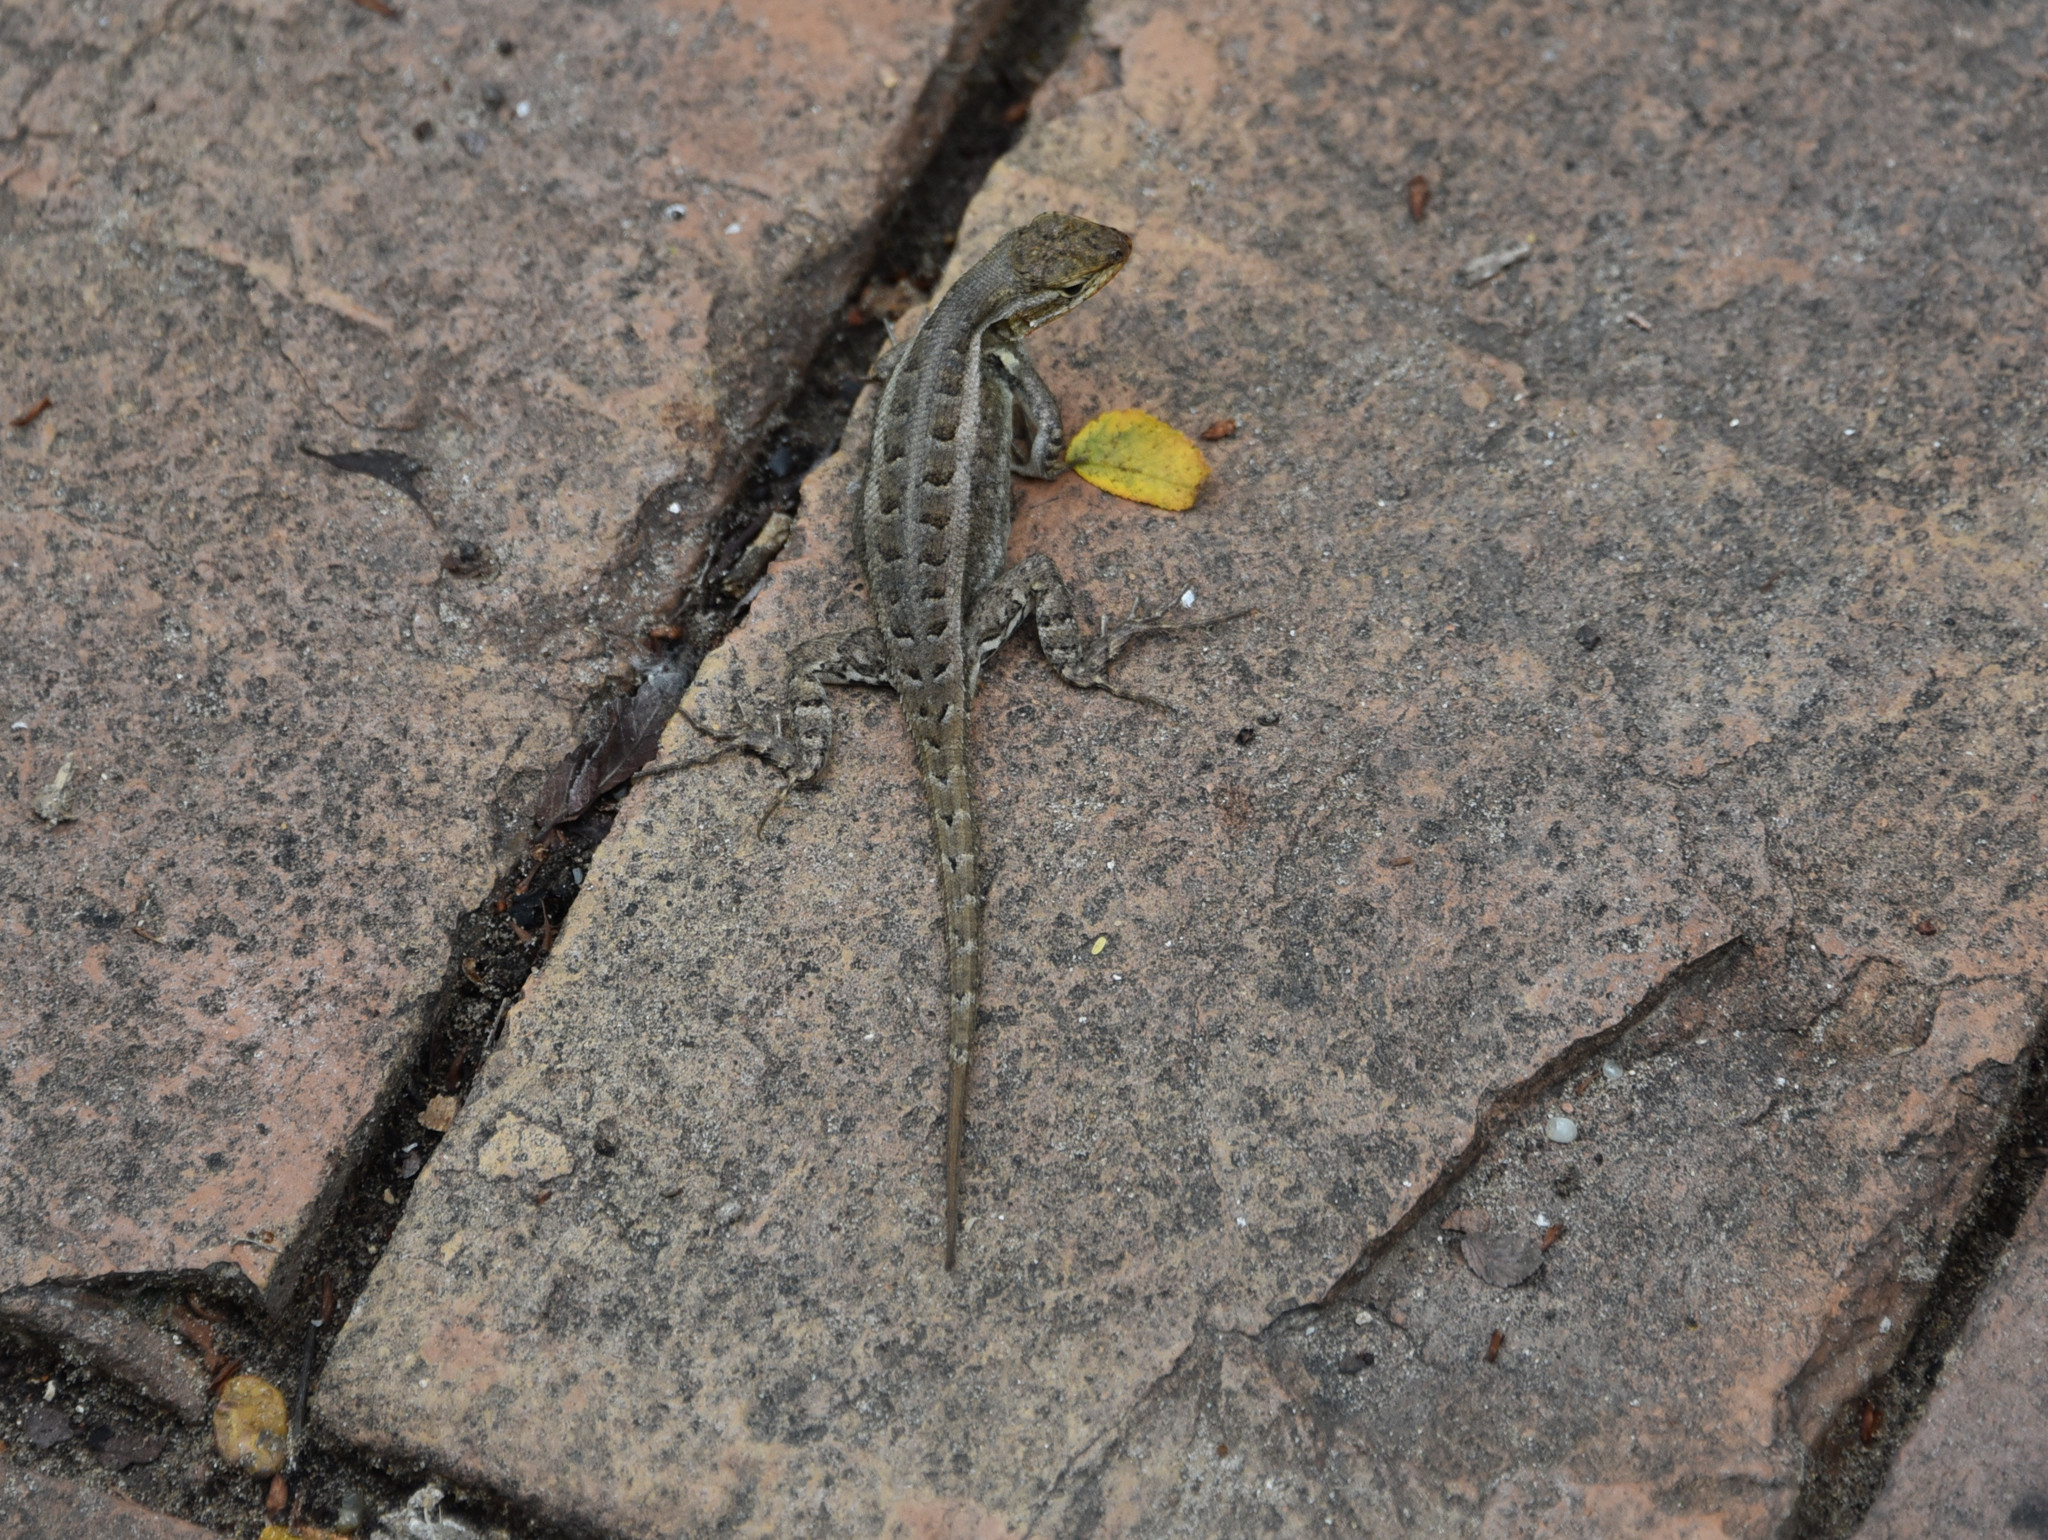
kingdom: Animalia
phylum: Chordata
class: Squamata
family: Phrynosomatidae
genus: Sceloporus
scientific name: Sceloporus variabilis
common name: Rosebelly lizard
